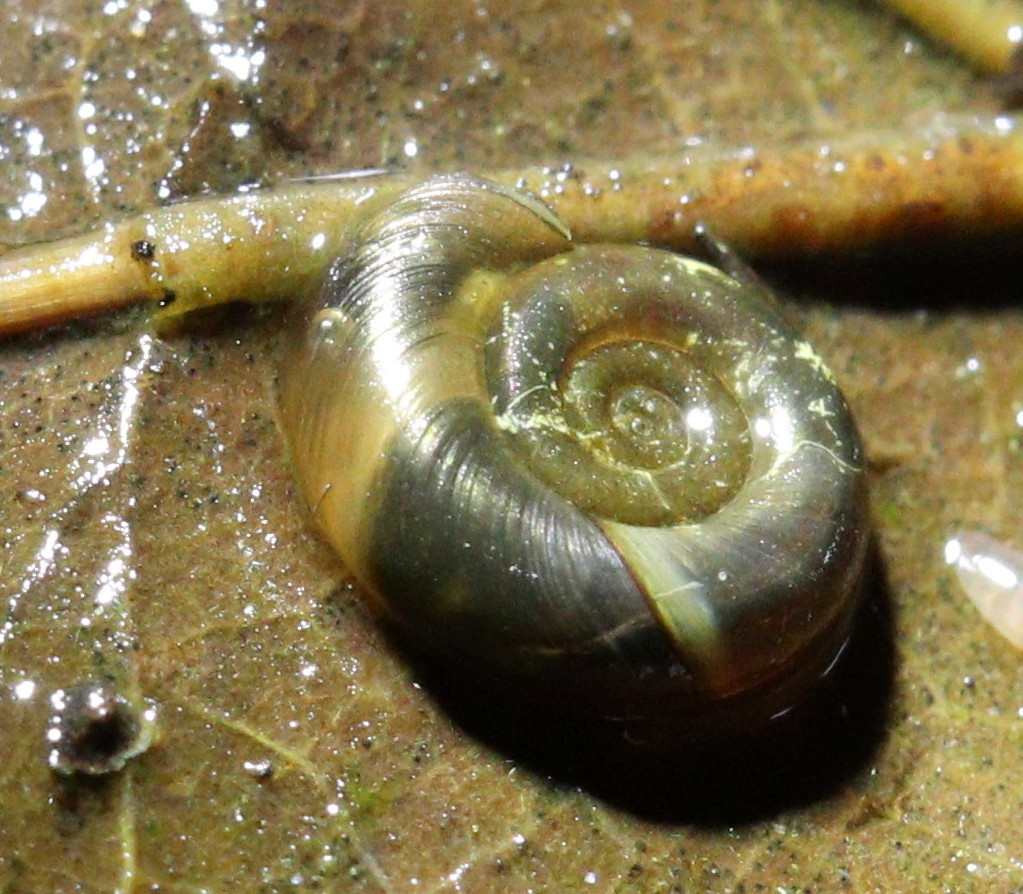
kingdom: Animalia
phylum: Mollusca
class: Gastropoda
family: Planorbidae
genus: Planorbarius
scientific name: Planorbarius corneus
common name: Great ramshorn
